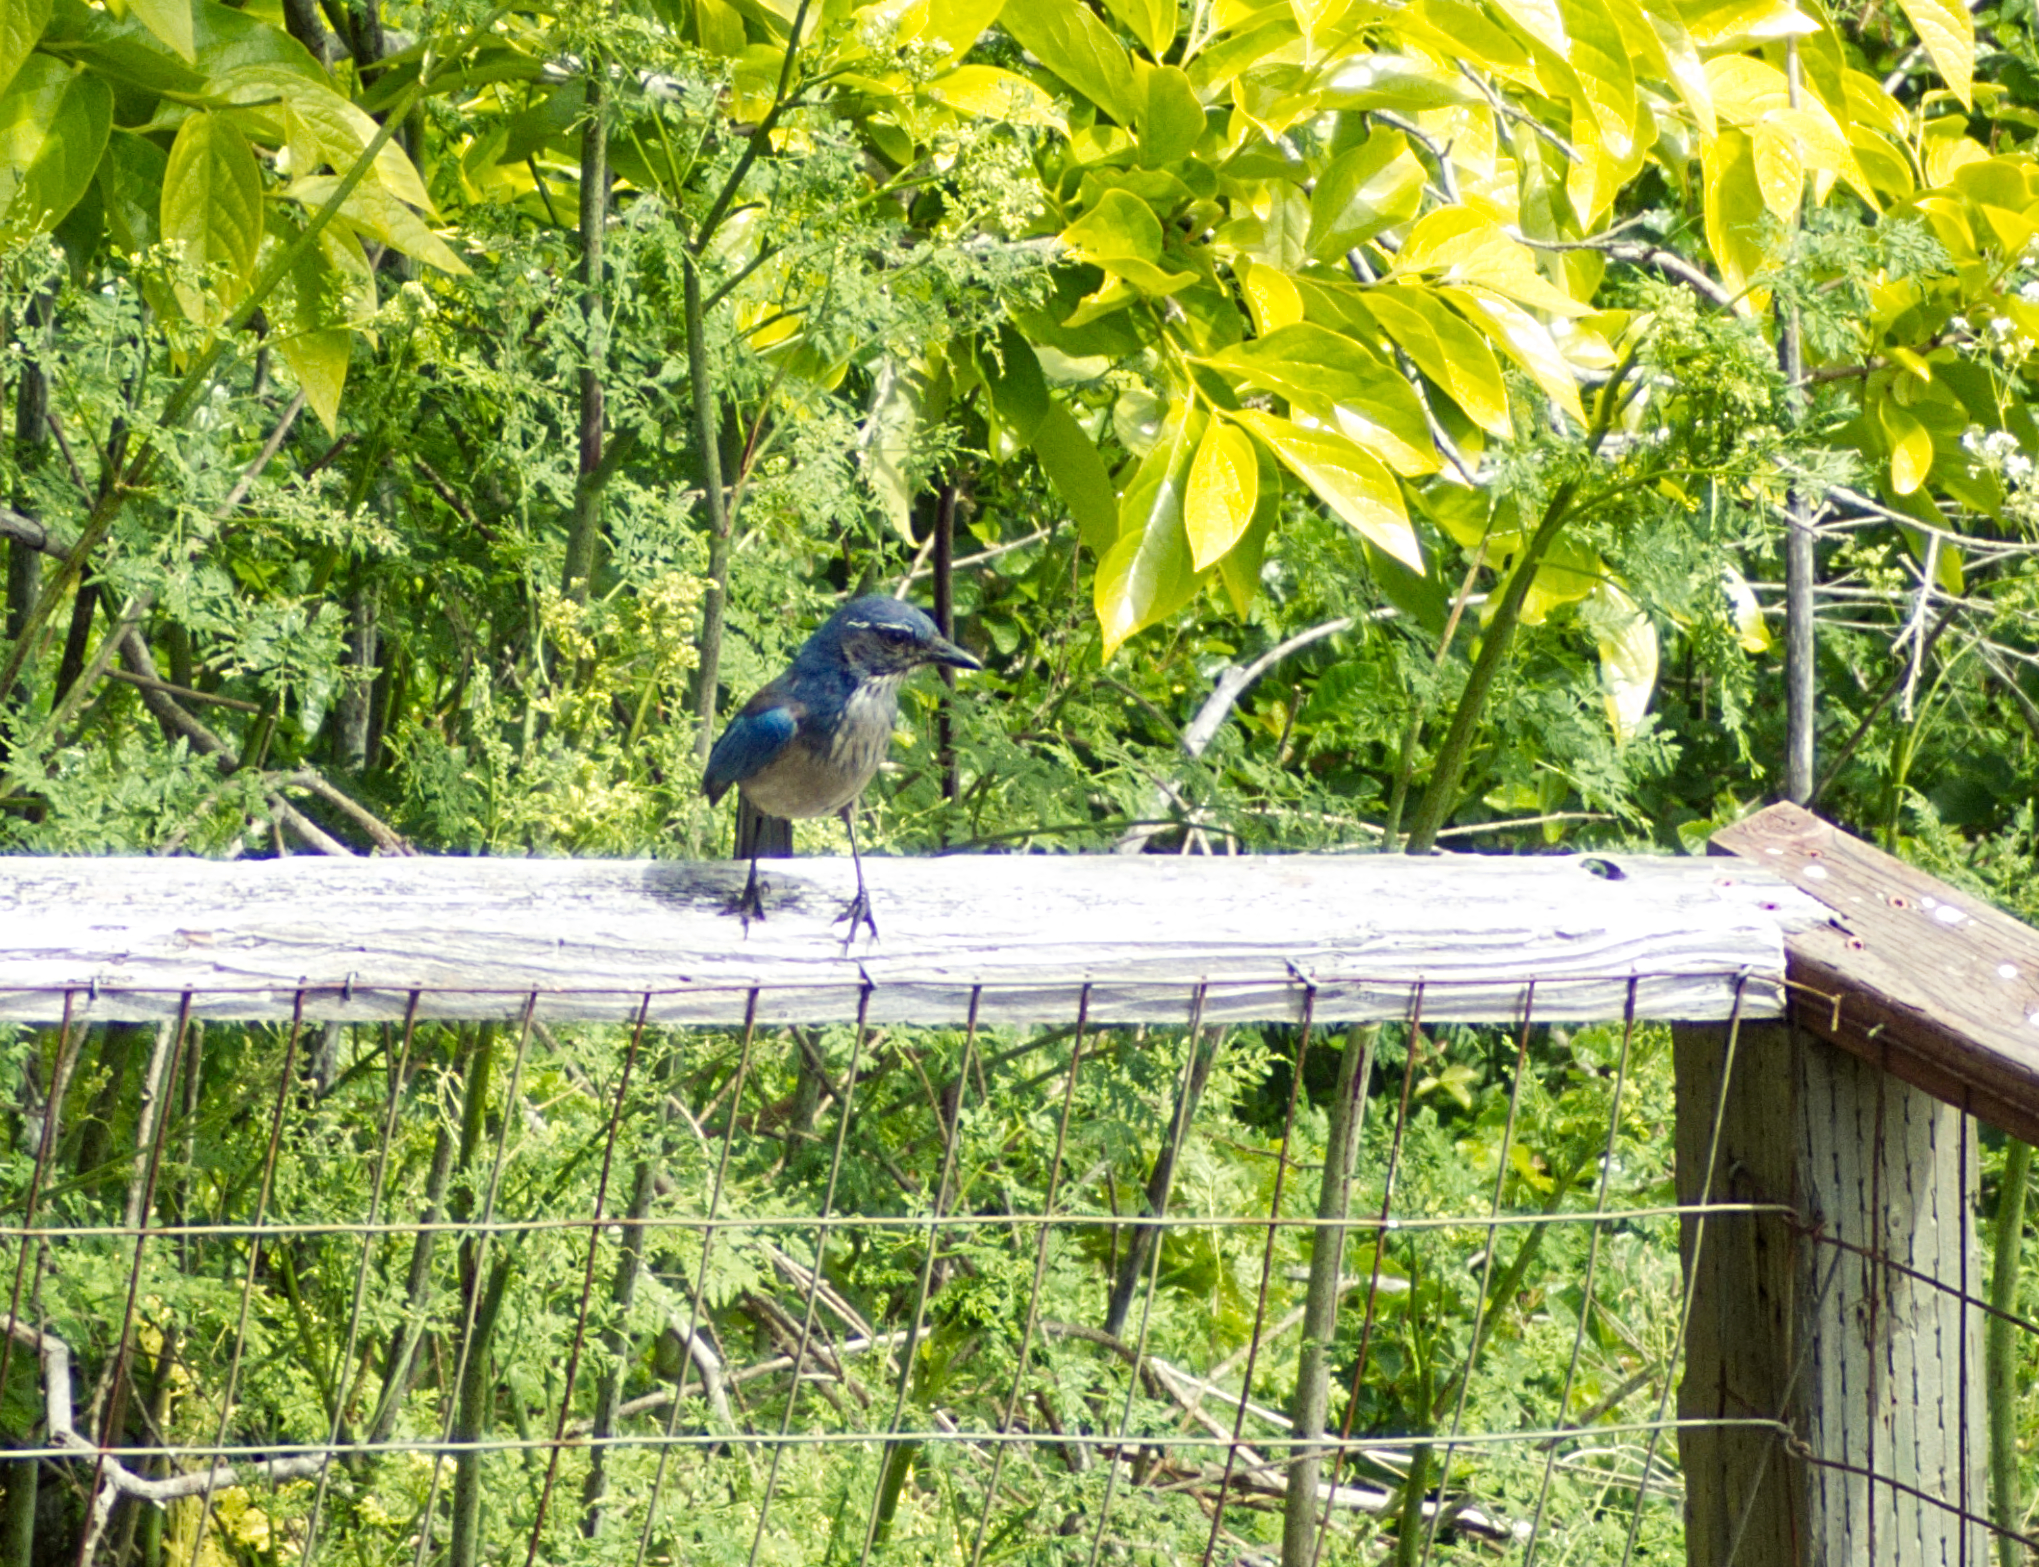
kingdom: Animalia
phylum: Chordata
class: Aves
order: Passeriformes
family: Corvidae
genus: Aphelocoma
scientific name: Aphelocoma californica
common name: California scrub-jay
